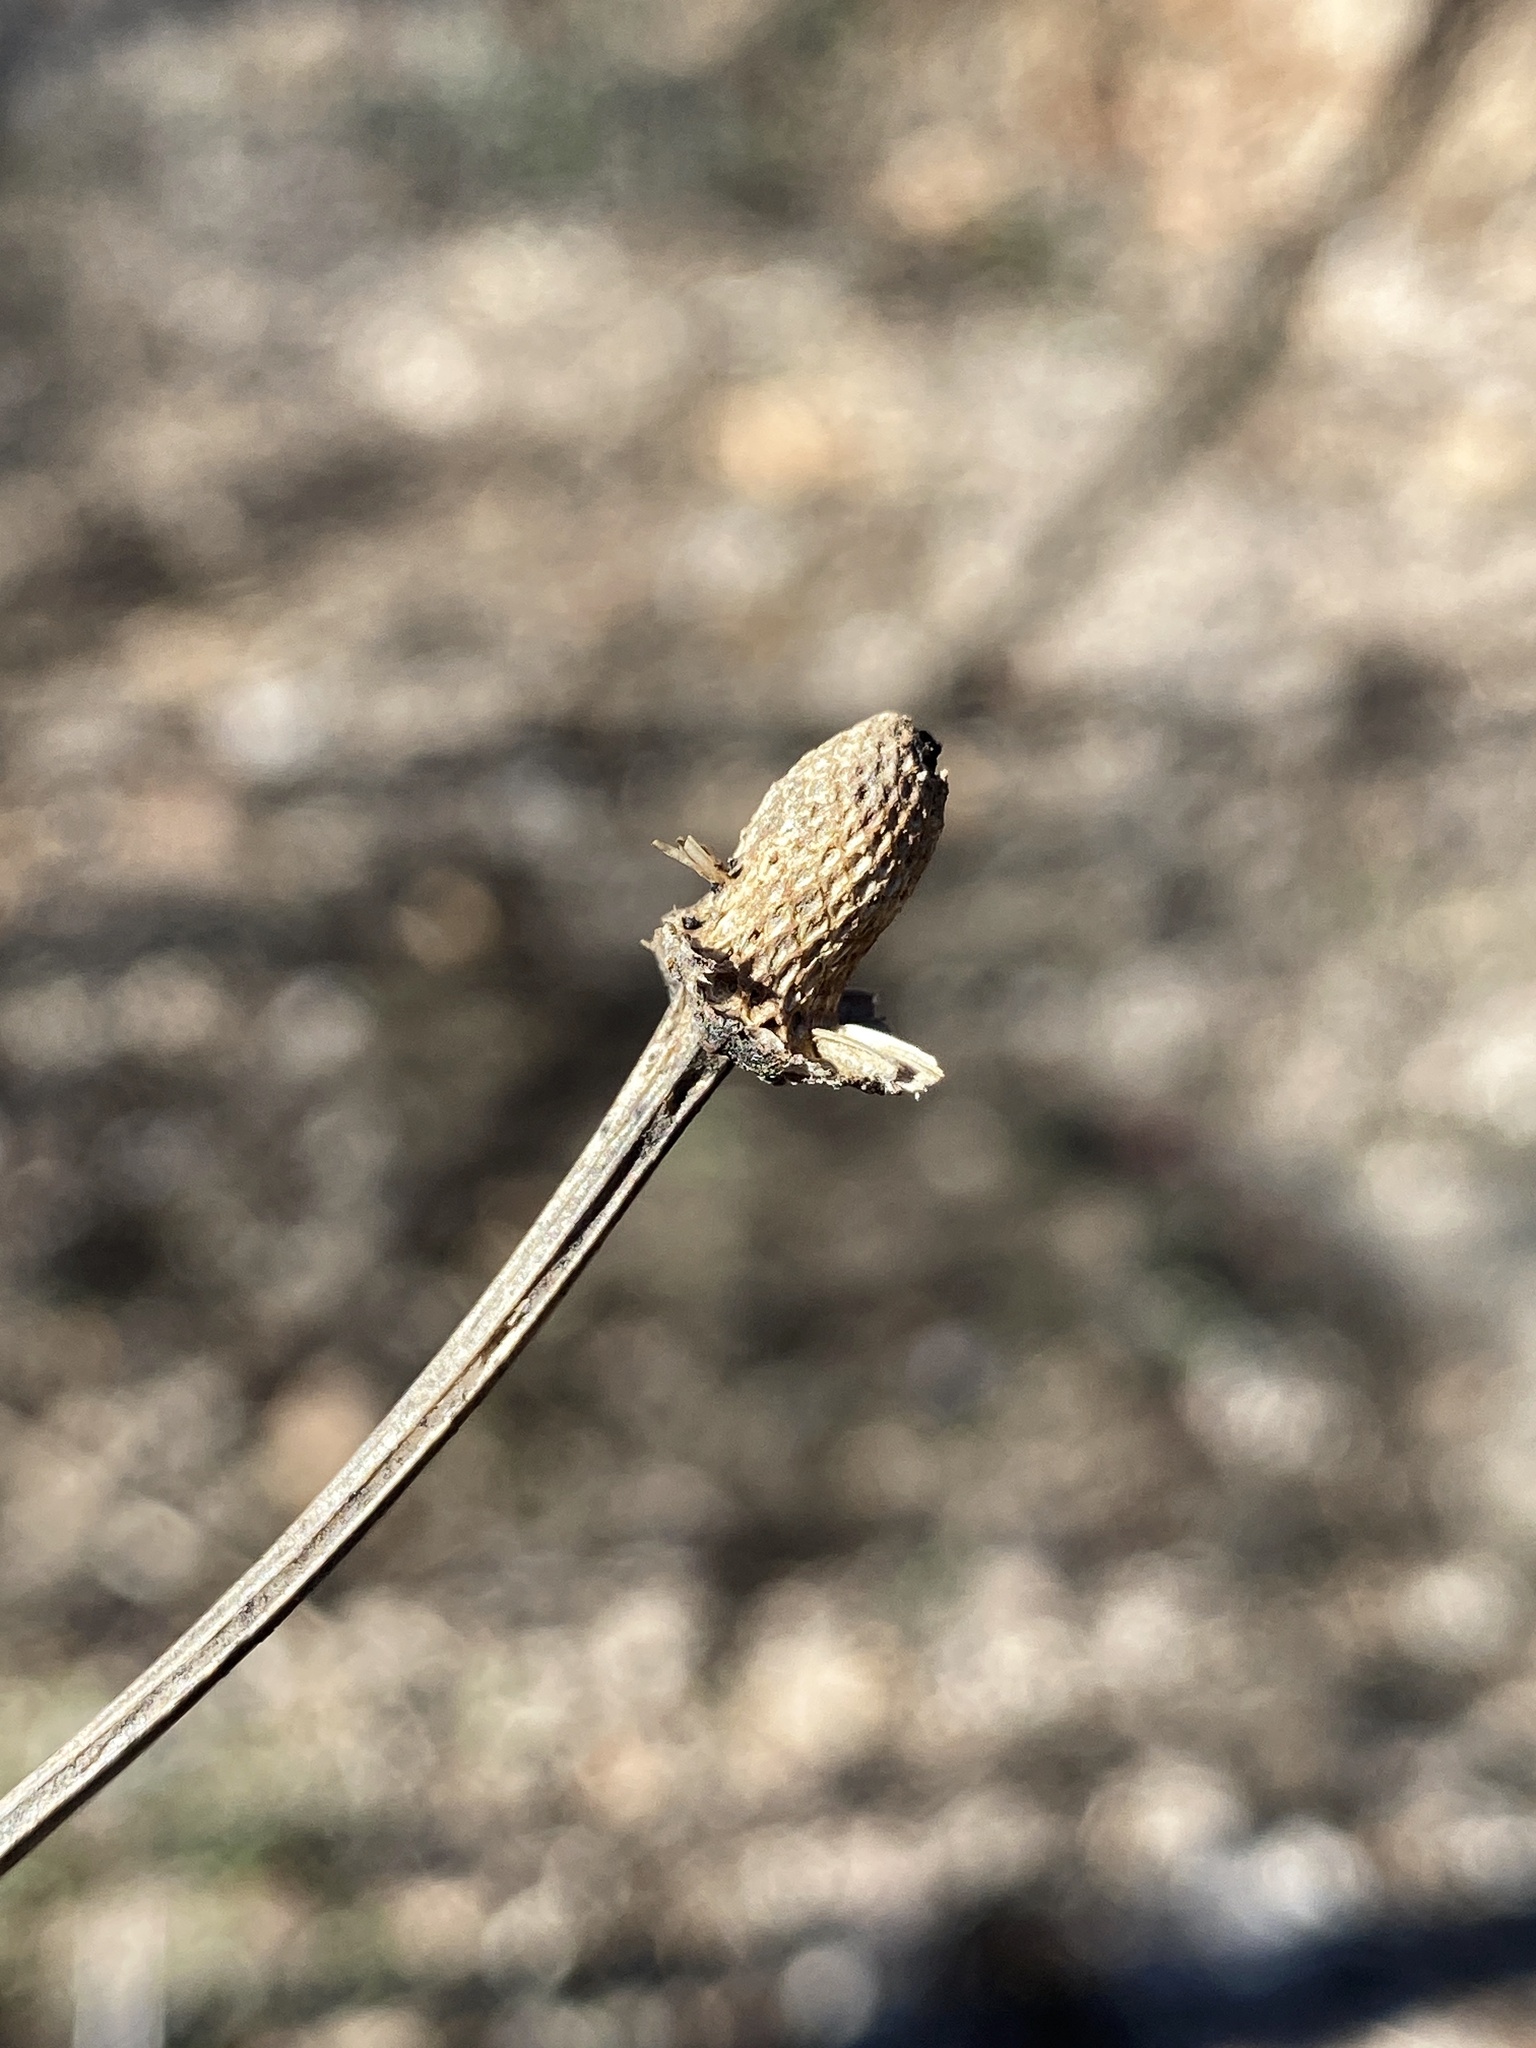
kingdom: Plantae
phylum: Tracheophyta
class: Magnoliopsida
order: Asterales
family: Asteraceae
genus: Rudbeckia
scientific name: Rudbeckia laciniata
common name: Coneflower
